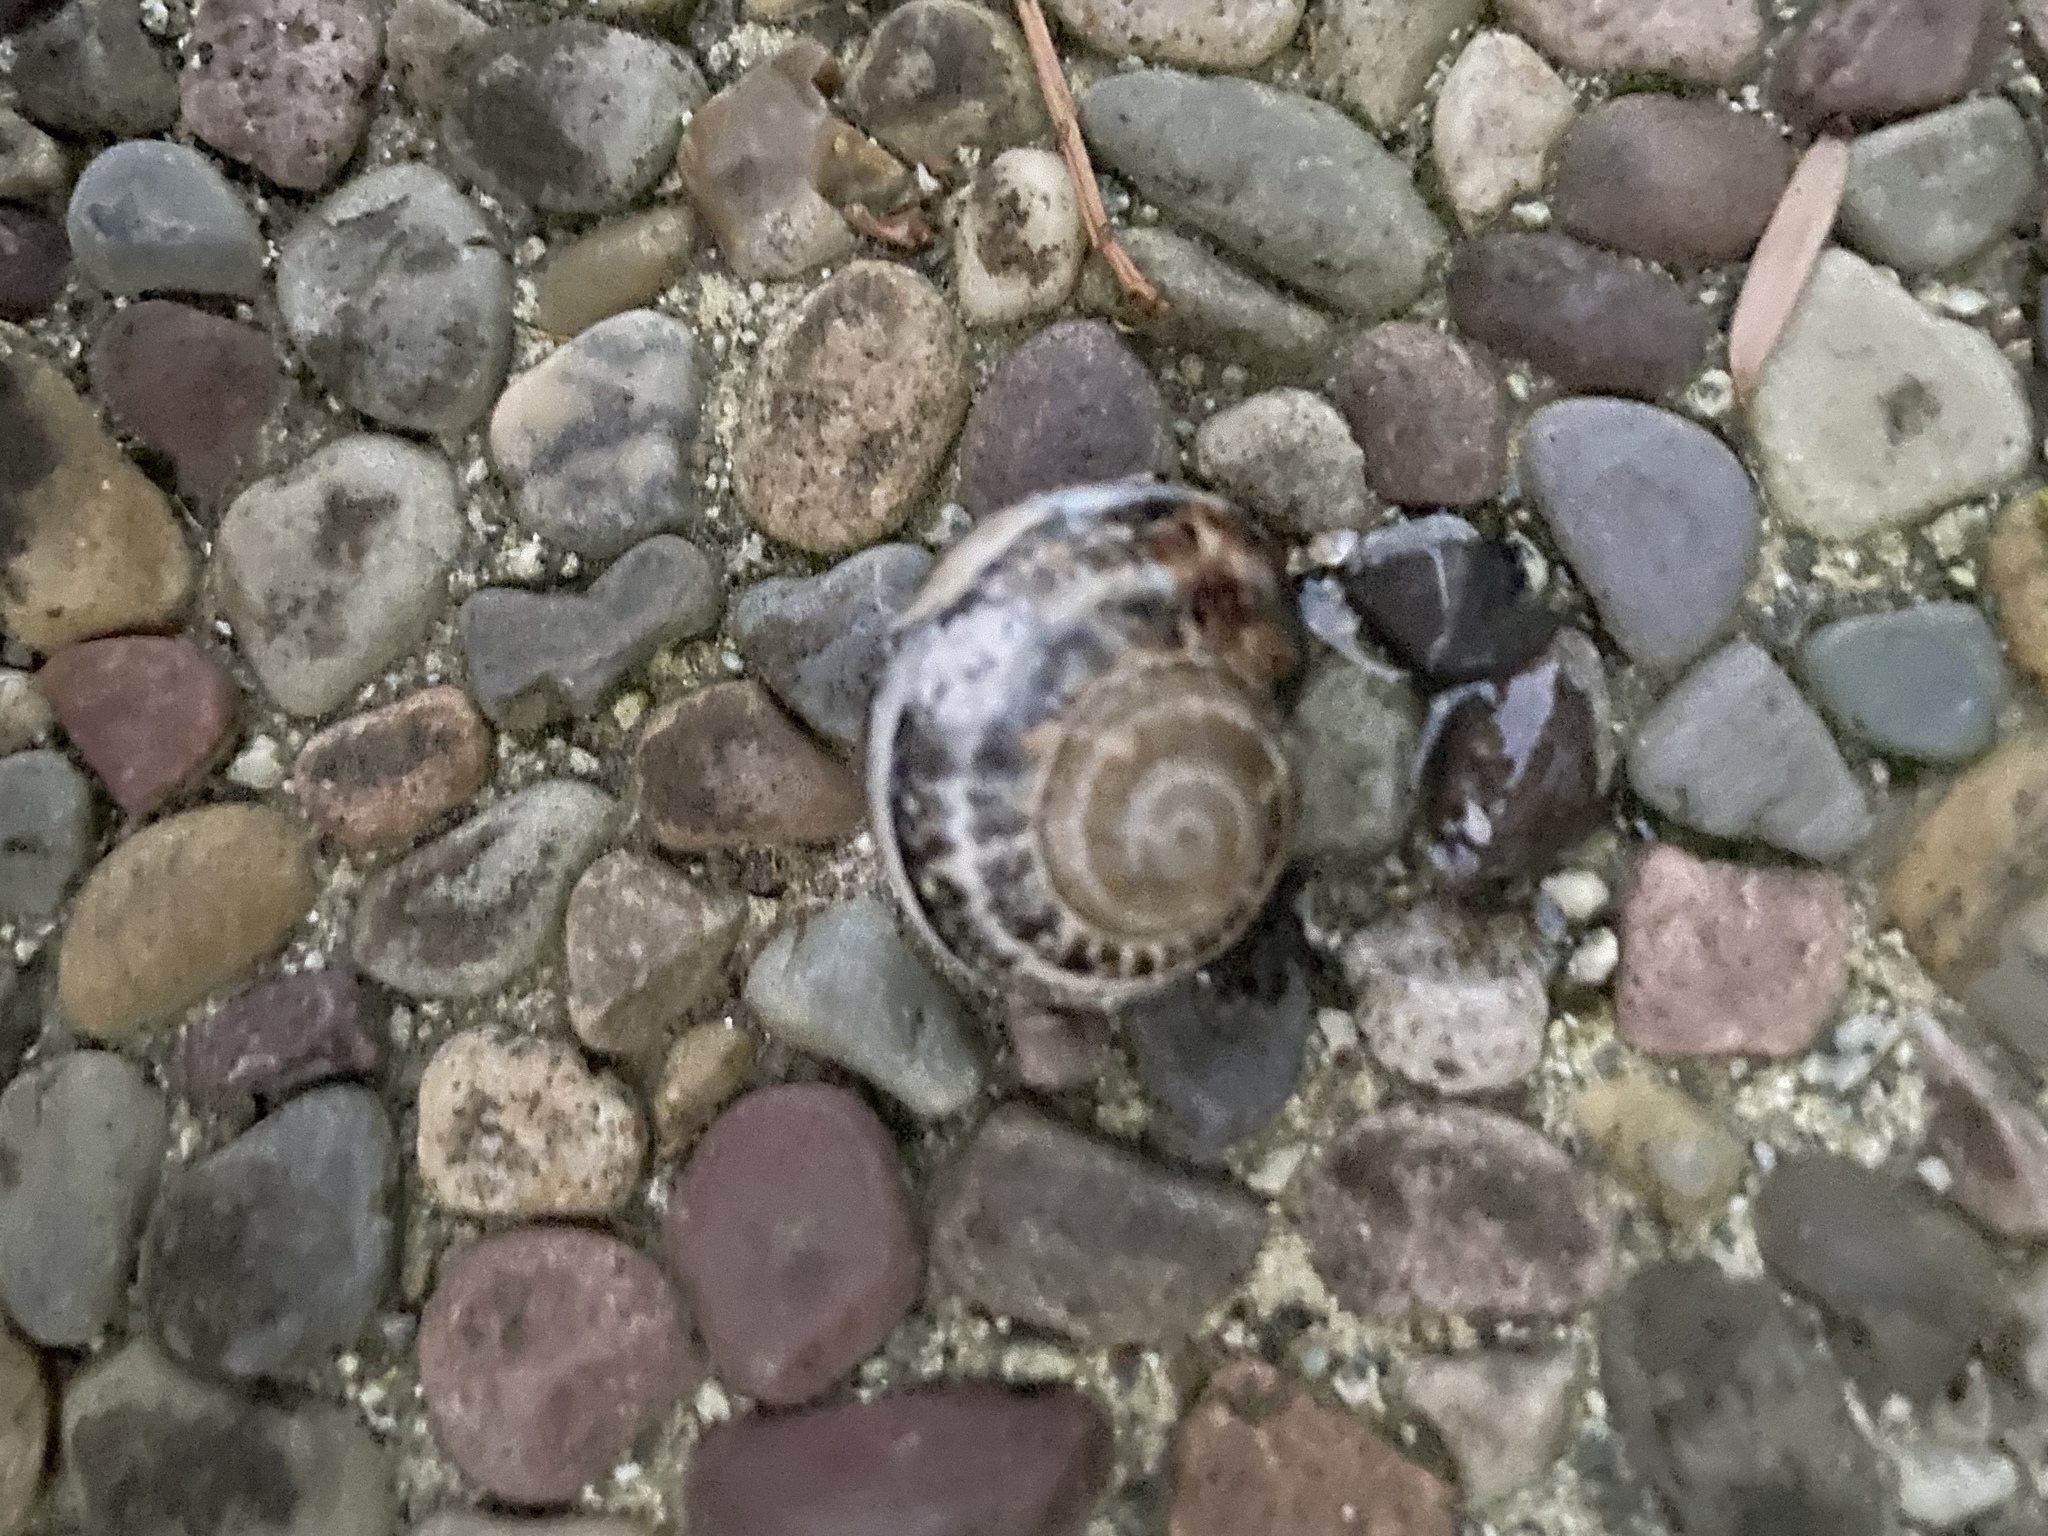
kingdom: Animalia
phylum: Mollusca
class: Gastropoda
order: Stylommatophora
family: Helicidae
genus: Otala
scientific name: Otala lactea
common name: Milk snail
